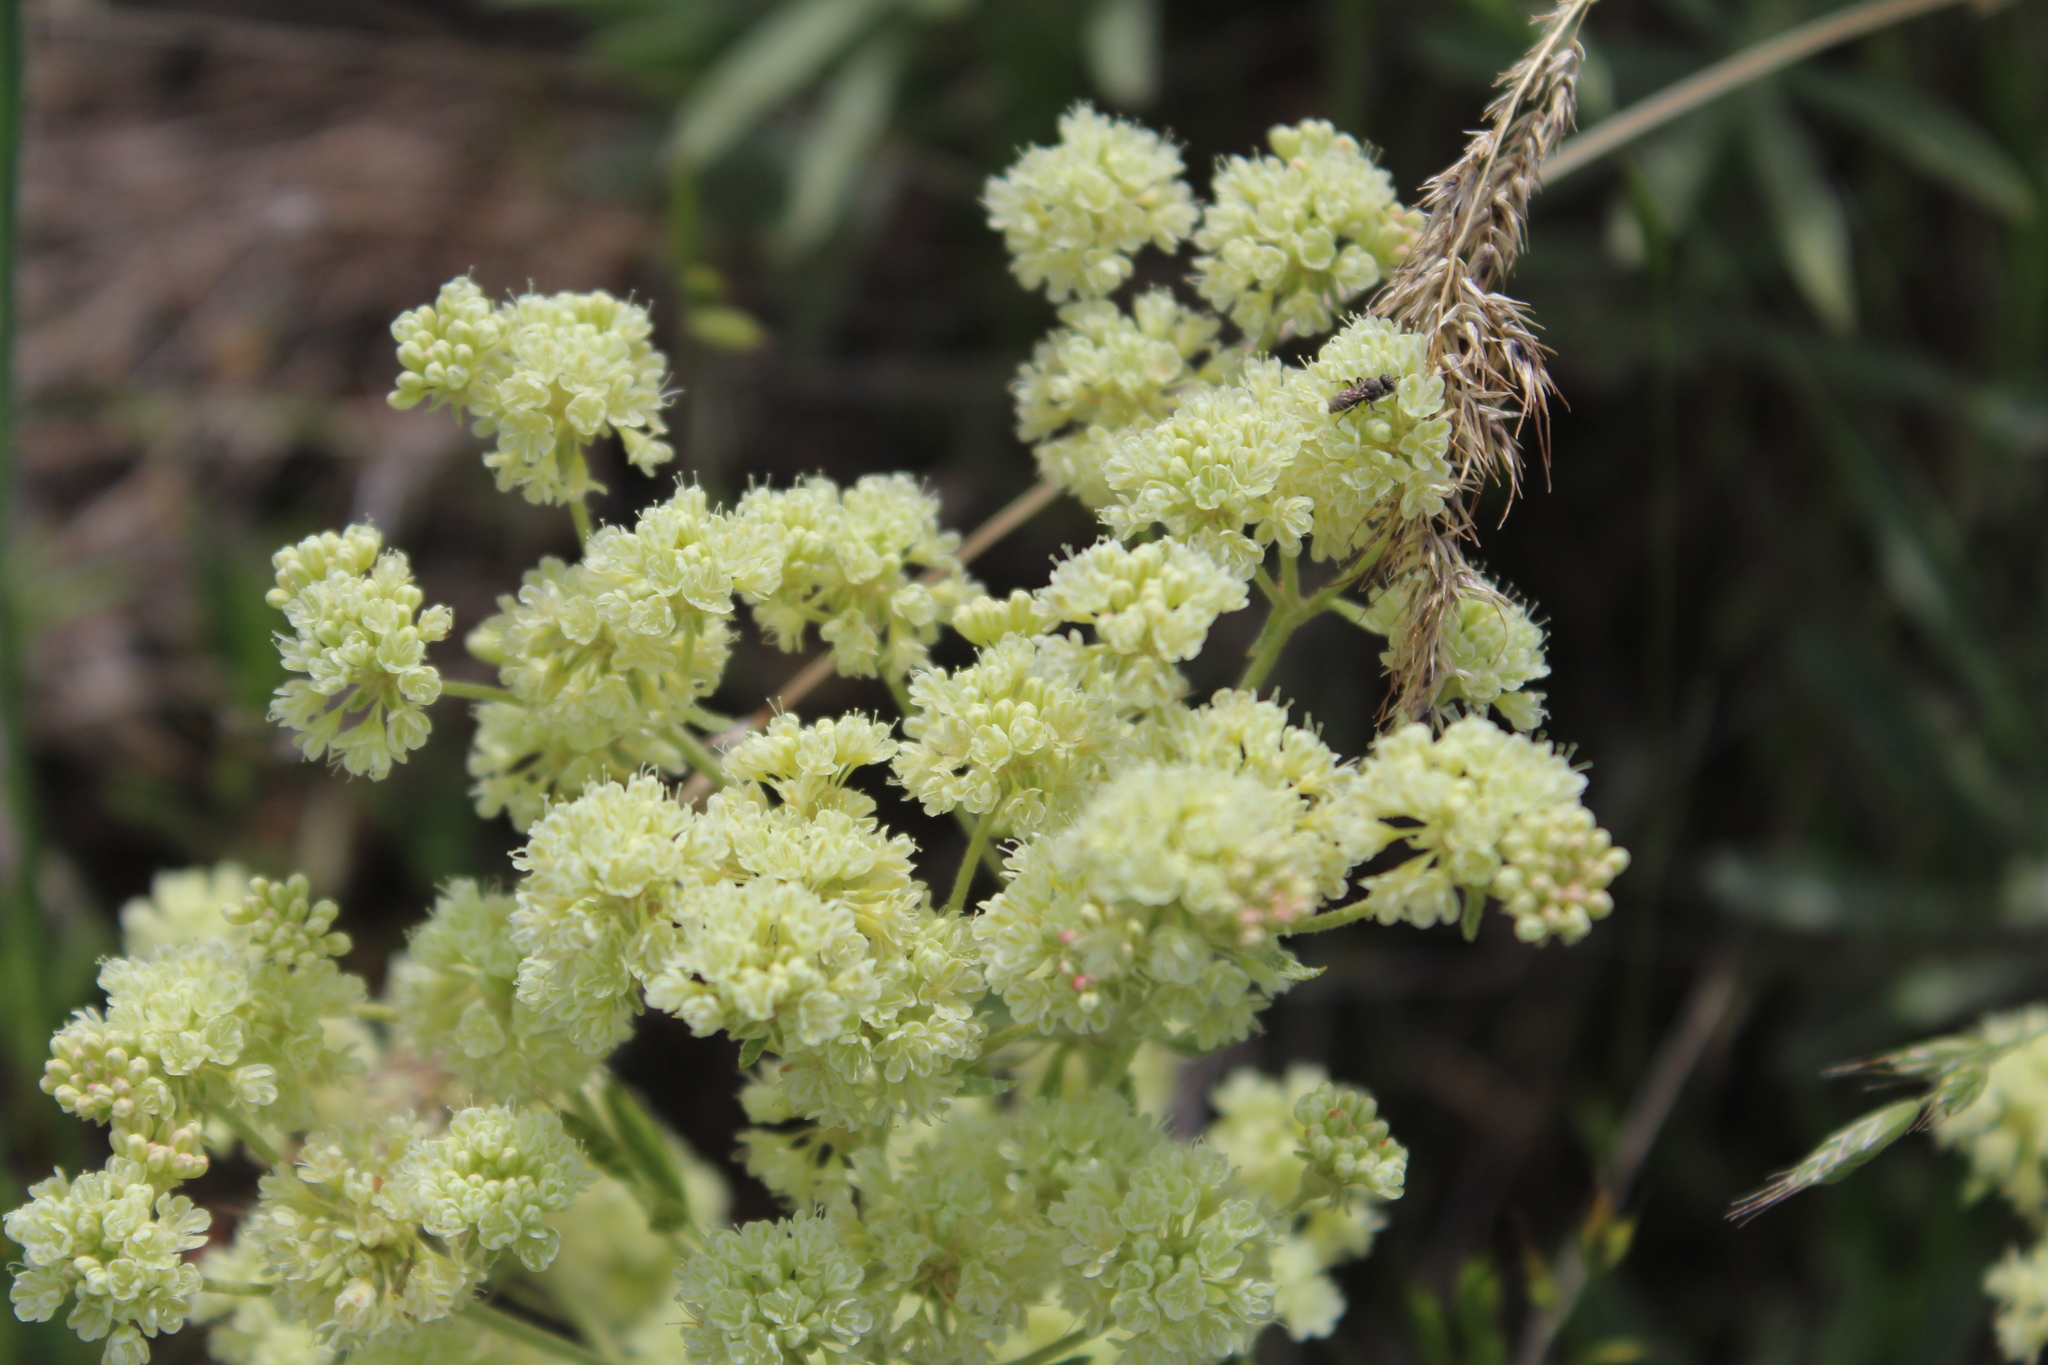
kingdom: Plantae
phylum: Tracheophyta
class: Magnoliopsida
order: Caryophyllales
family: Polygonaceae
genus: Eriogonum
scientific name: Eriogonum compositum
